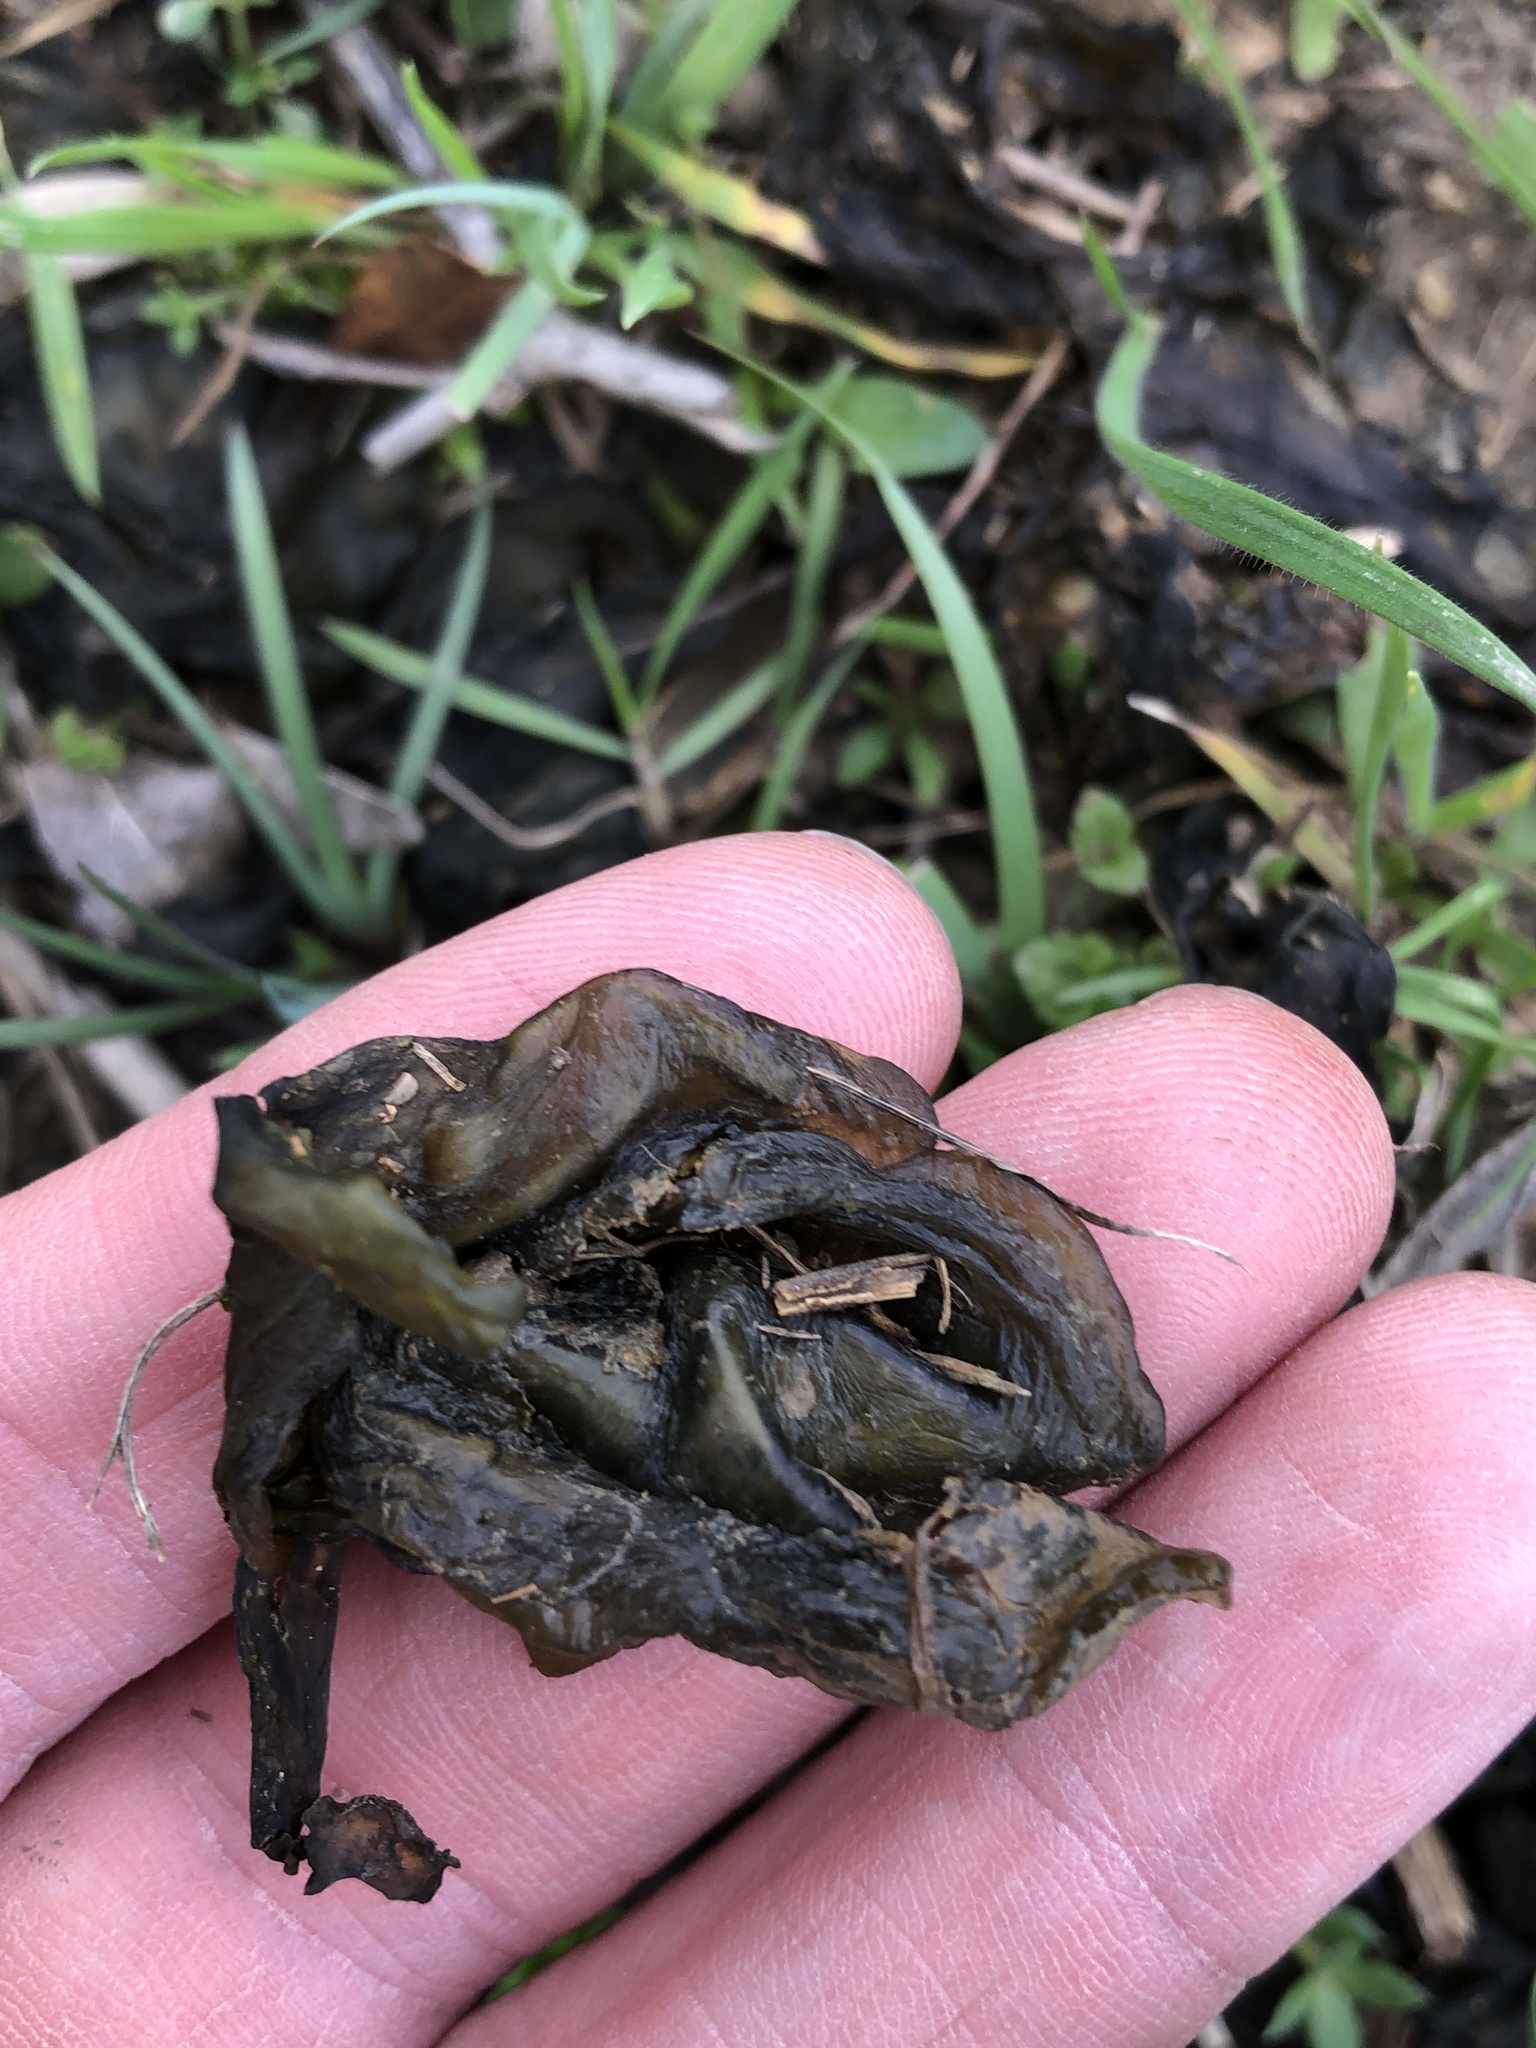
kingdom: Bacteria
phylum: Cyanobacteria
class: Cyanobacteriia
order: Cyanobacteriales
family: Nostocaceae
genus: Nostoc
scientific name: Nostoc commune
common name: Star jelly
